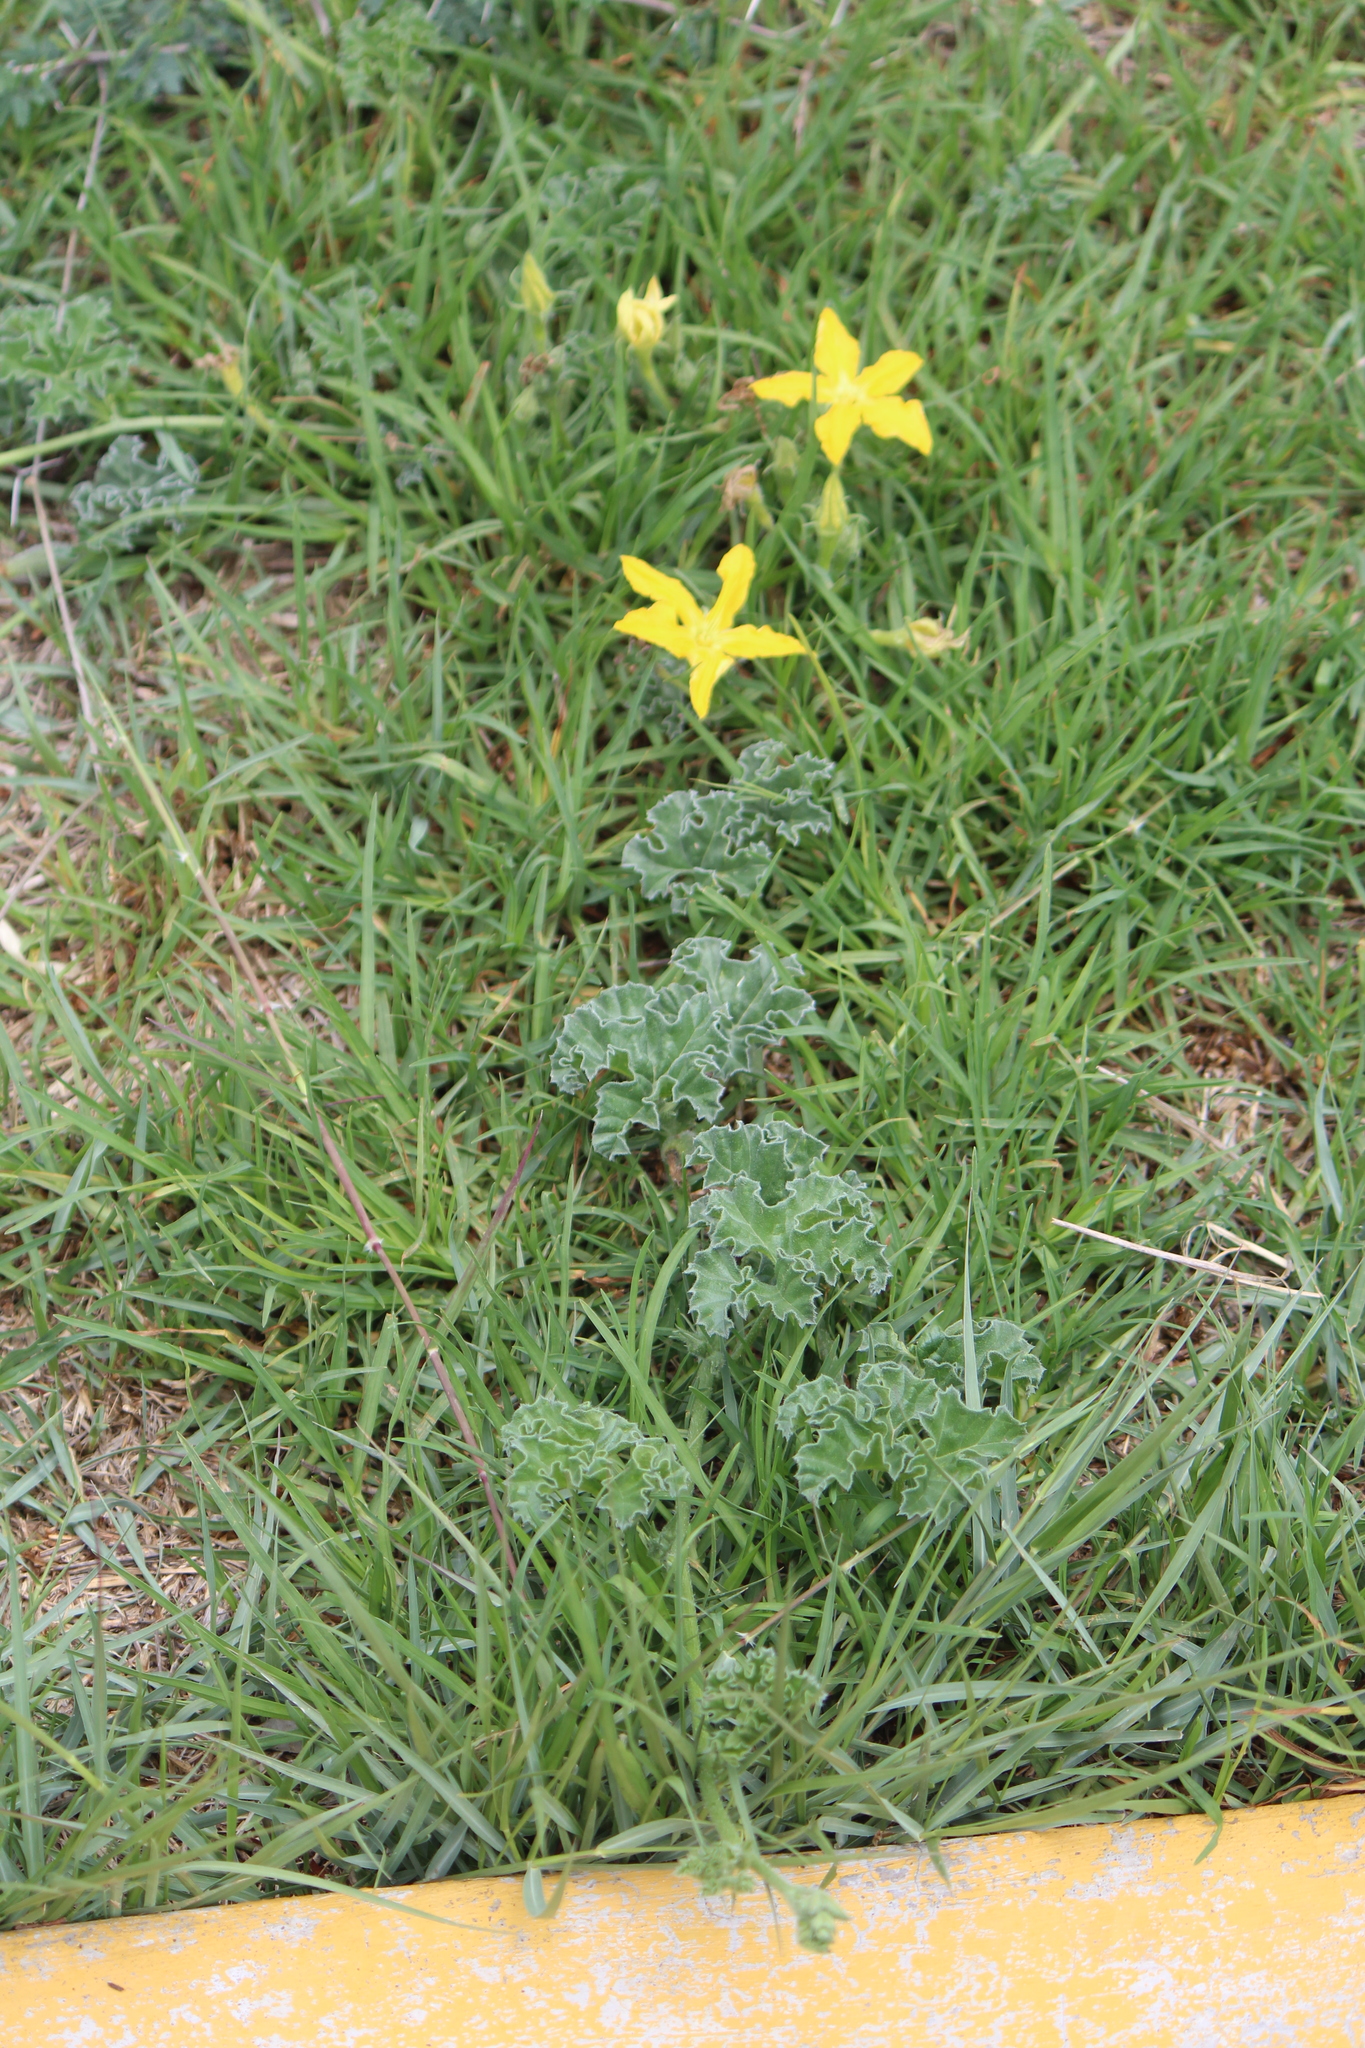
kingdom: Plantae
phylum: Tracheophyta
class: Magnoliopsida
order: Cucurbitales
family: Cucurbitaceae
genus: Apodanthera
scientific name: Apodanthera undulata
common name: Melon-loco
